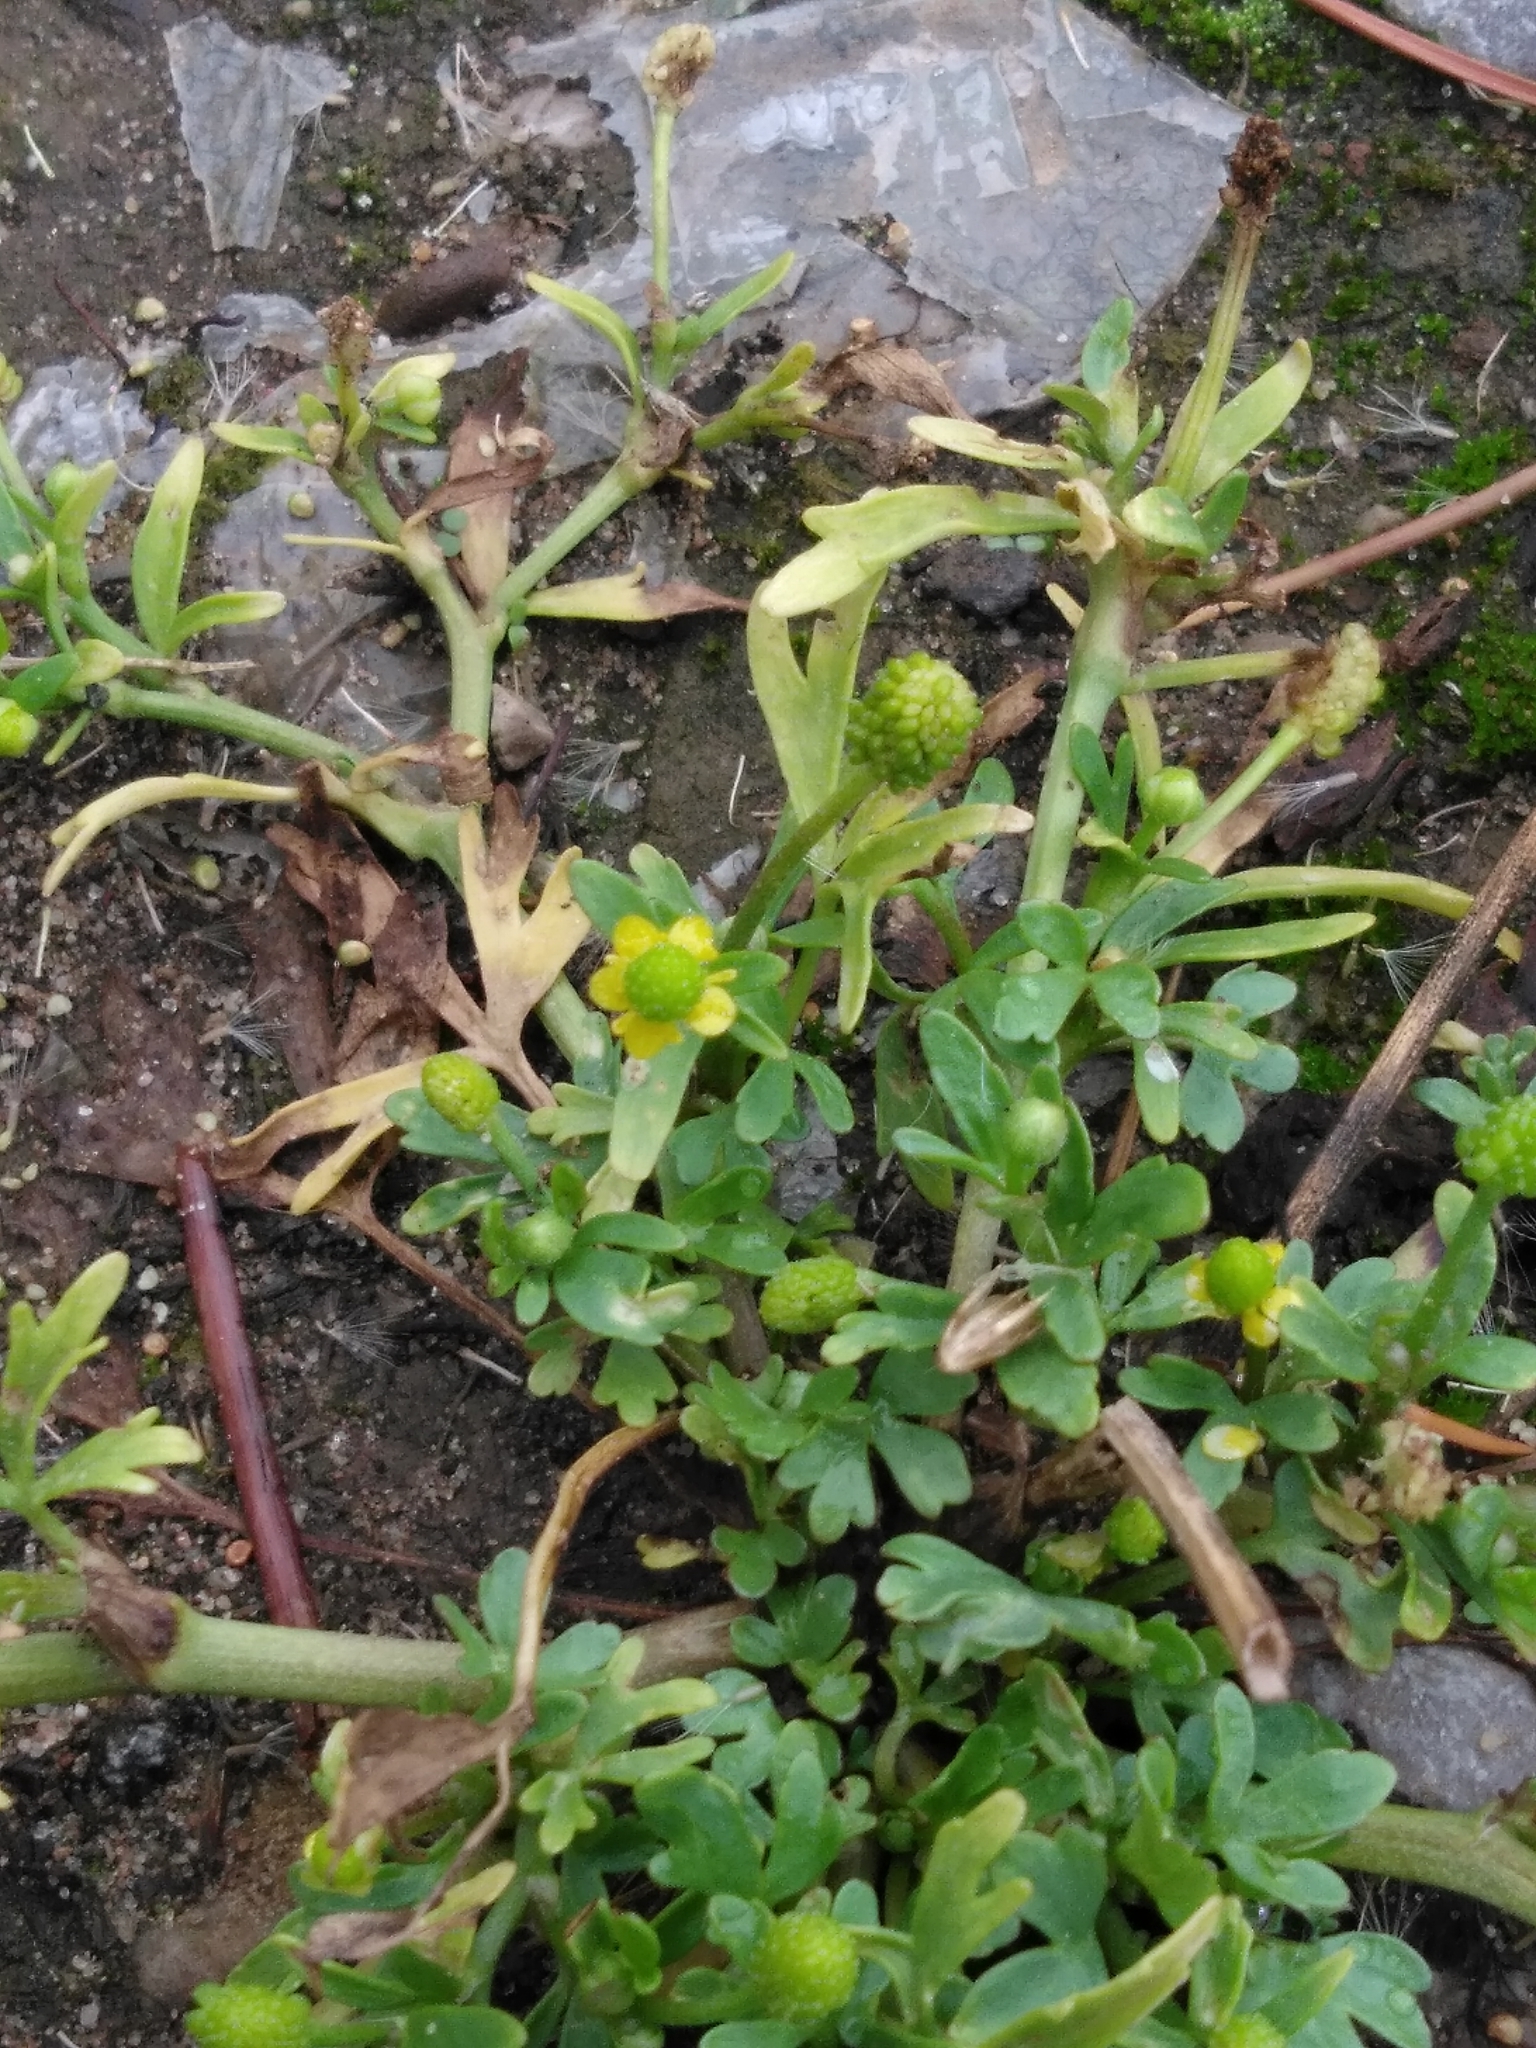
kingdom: Plantae
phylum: Tracheophyta
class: Magnoliopsida
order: Ranunculales
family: Ranunculaceae
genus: Ranunculus
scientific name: Ranunculus sceleratus
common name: Celery-leaved buttercup
